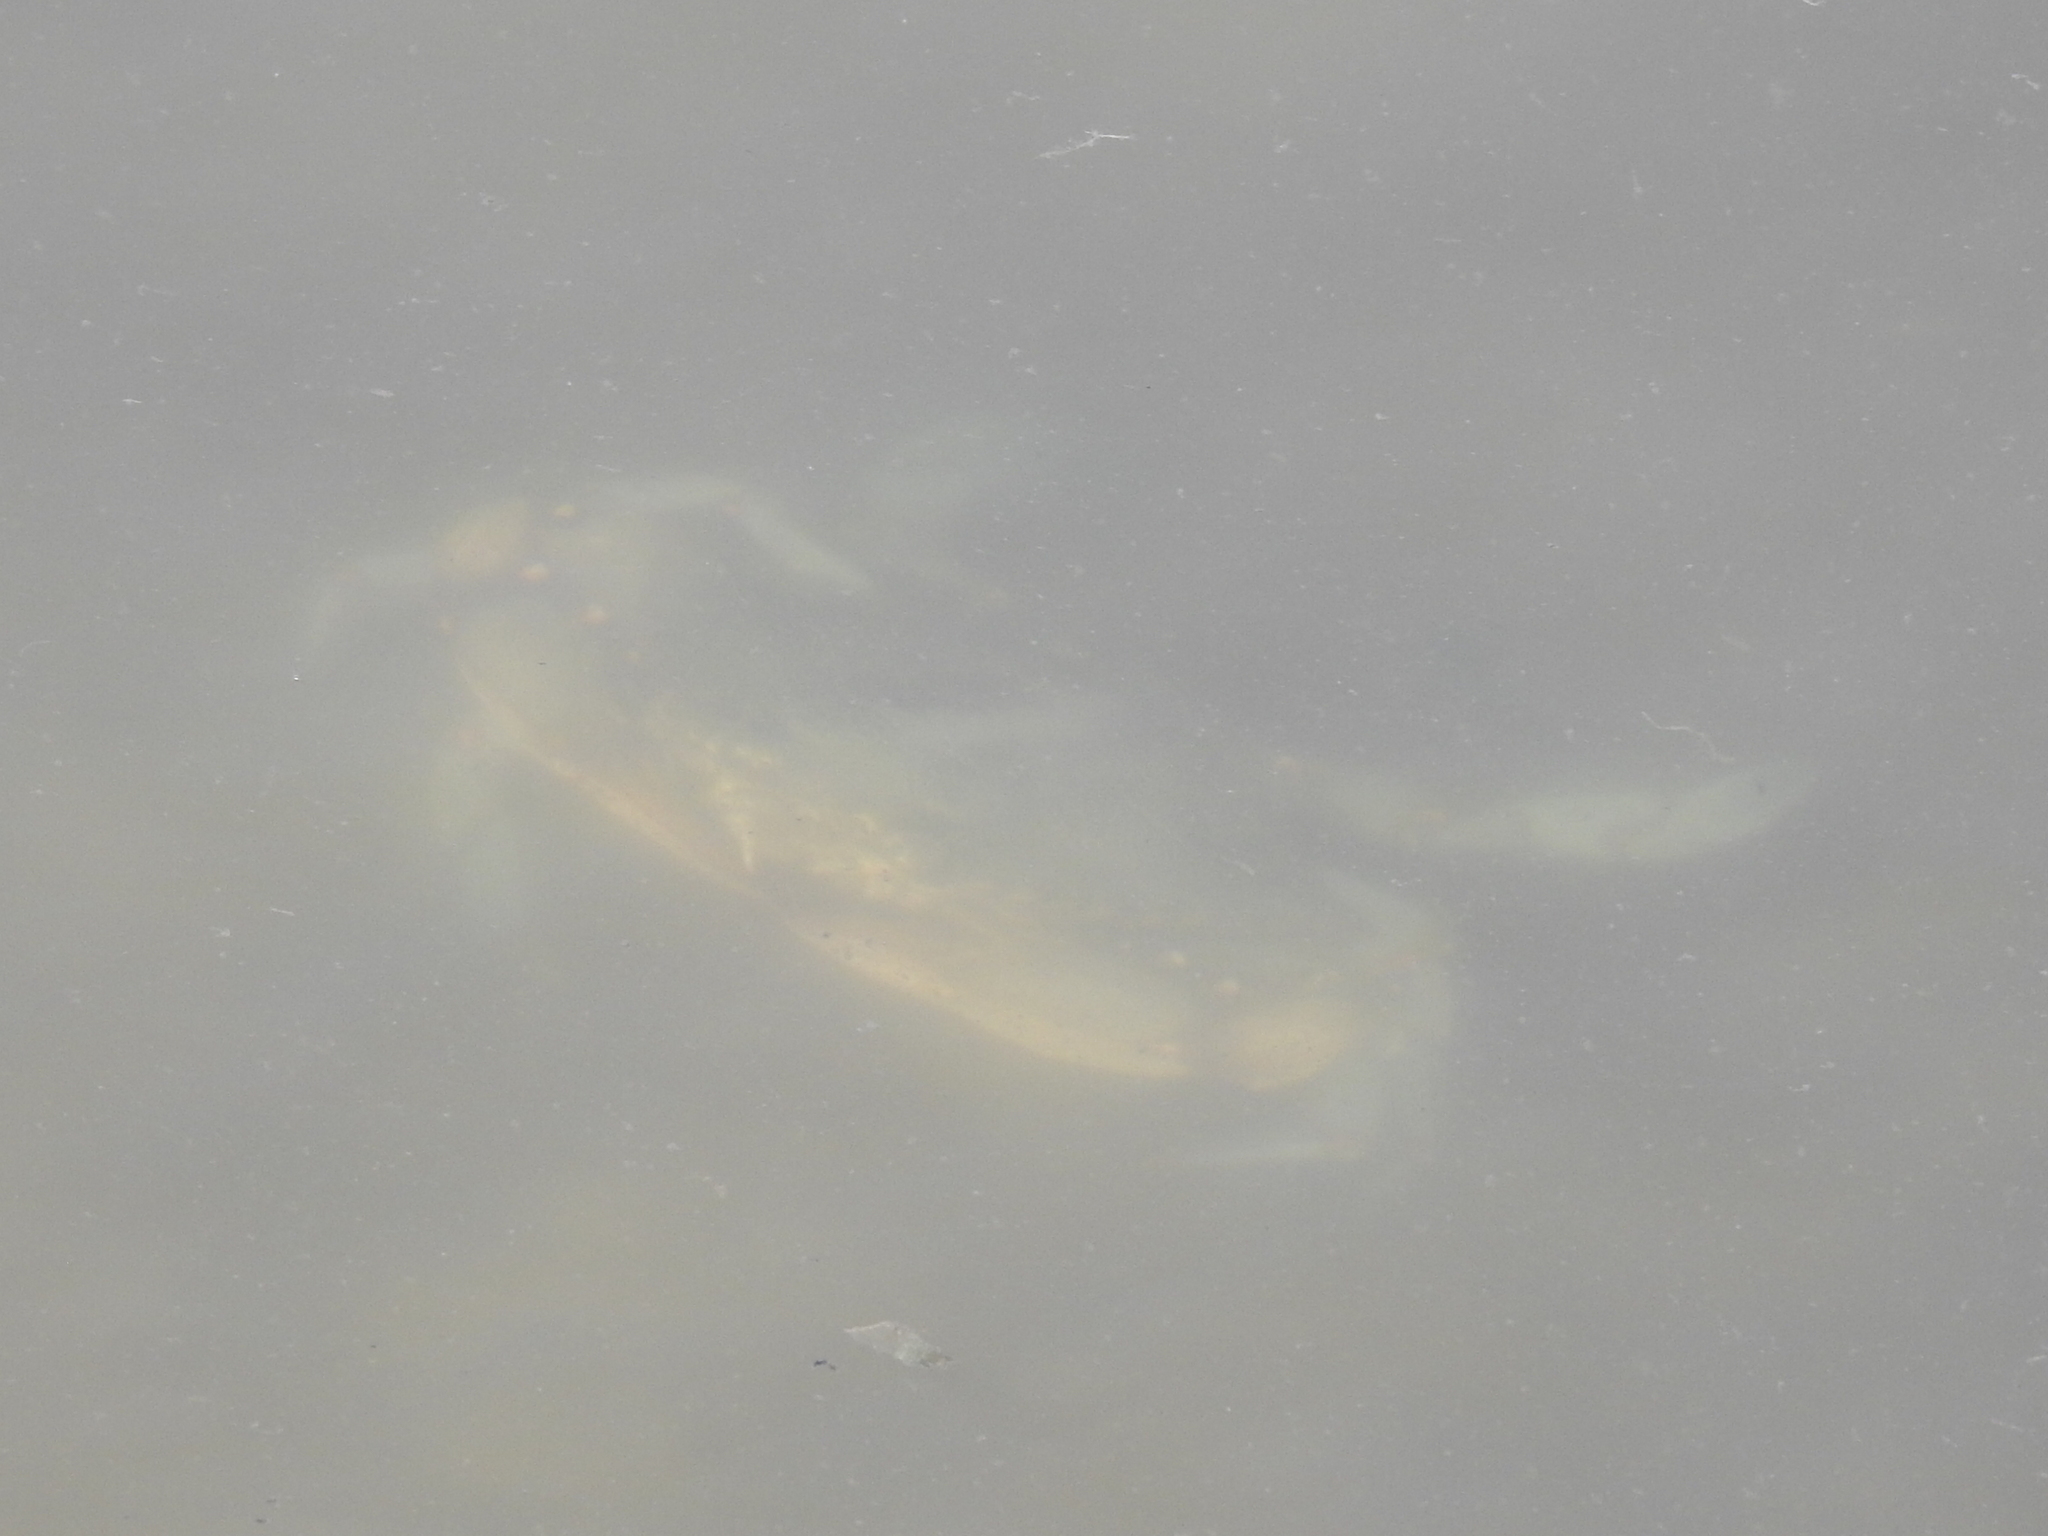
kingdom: Animalia
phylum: Arthropoda
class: Malacostraca
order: Decapoda
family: Portunidae
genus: Callinectes
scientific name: Callinectes sapidus
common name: Blue crab
